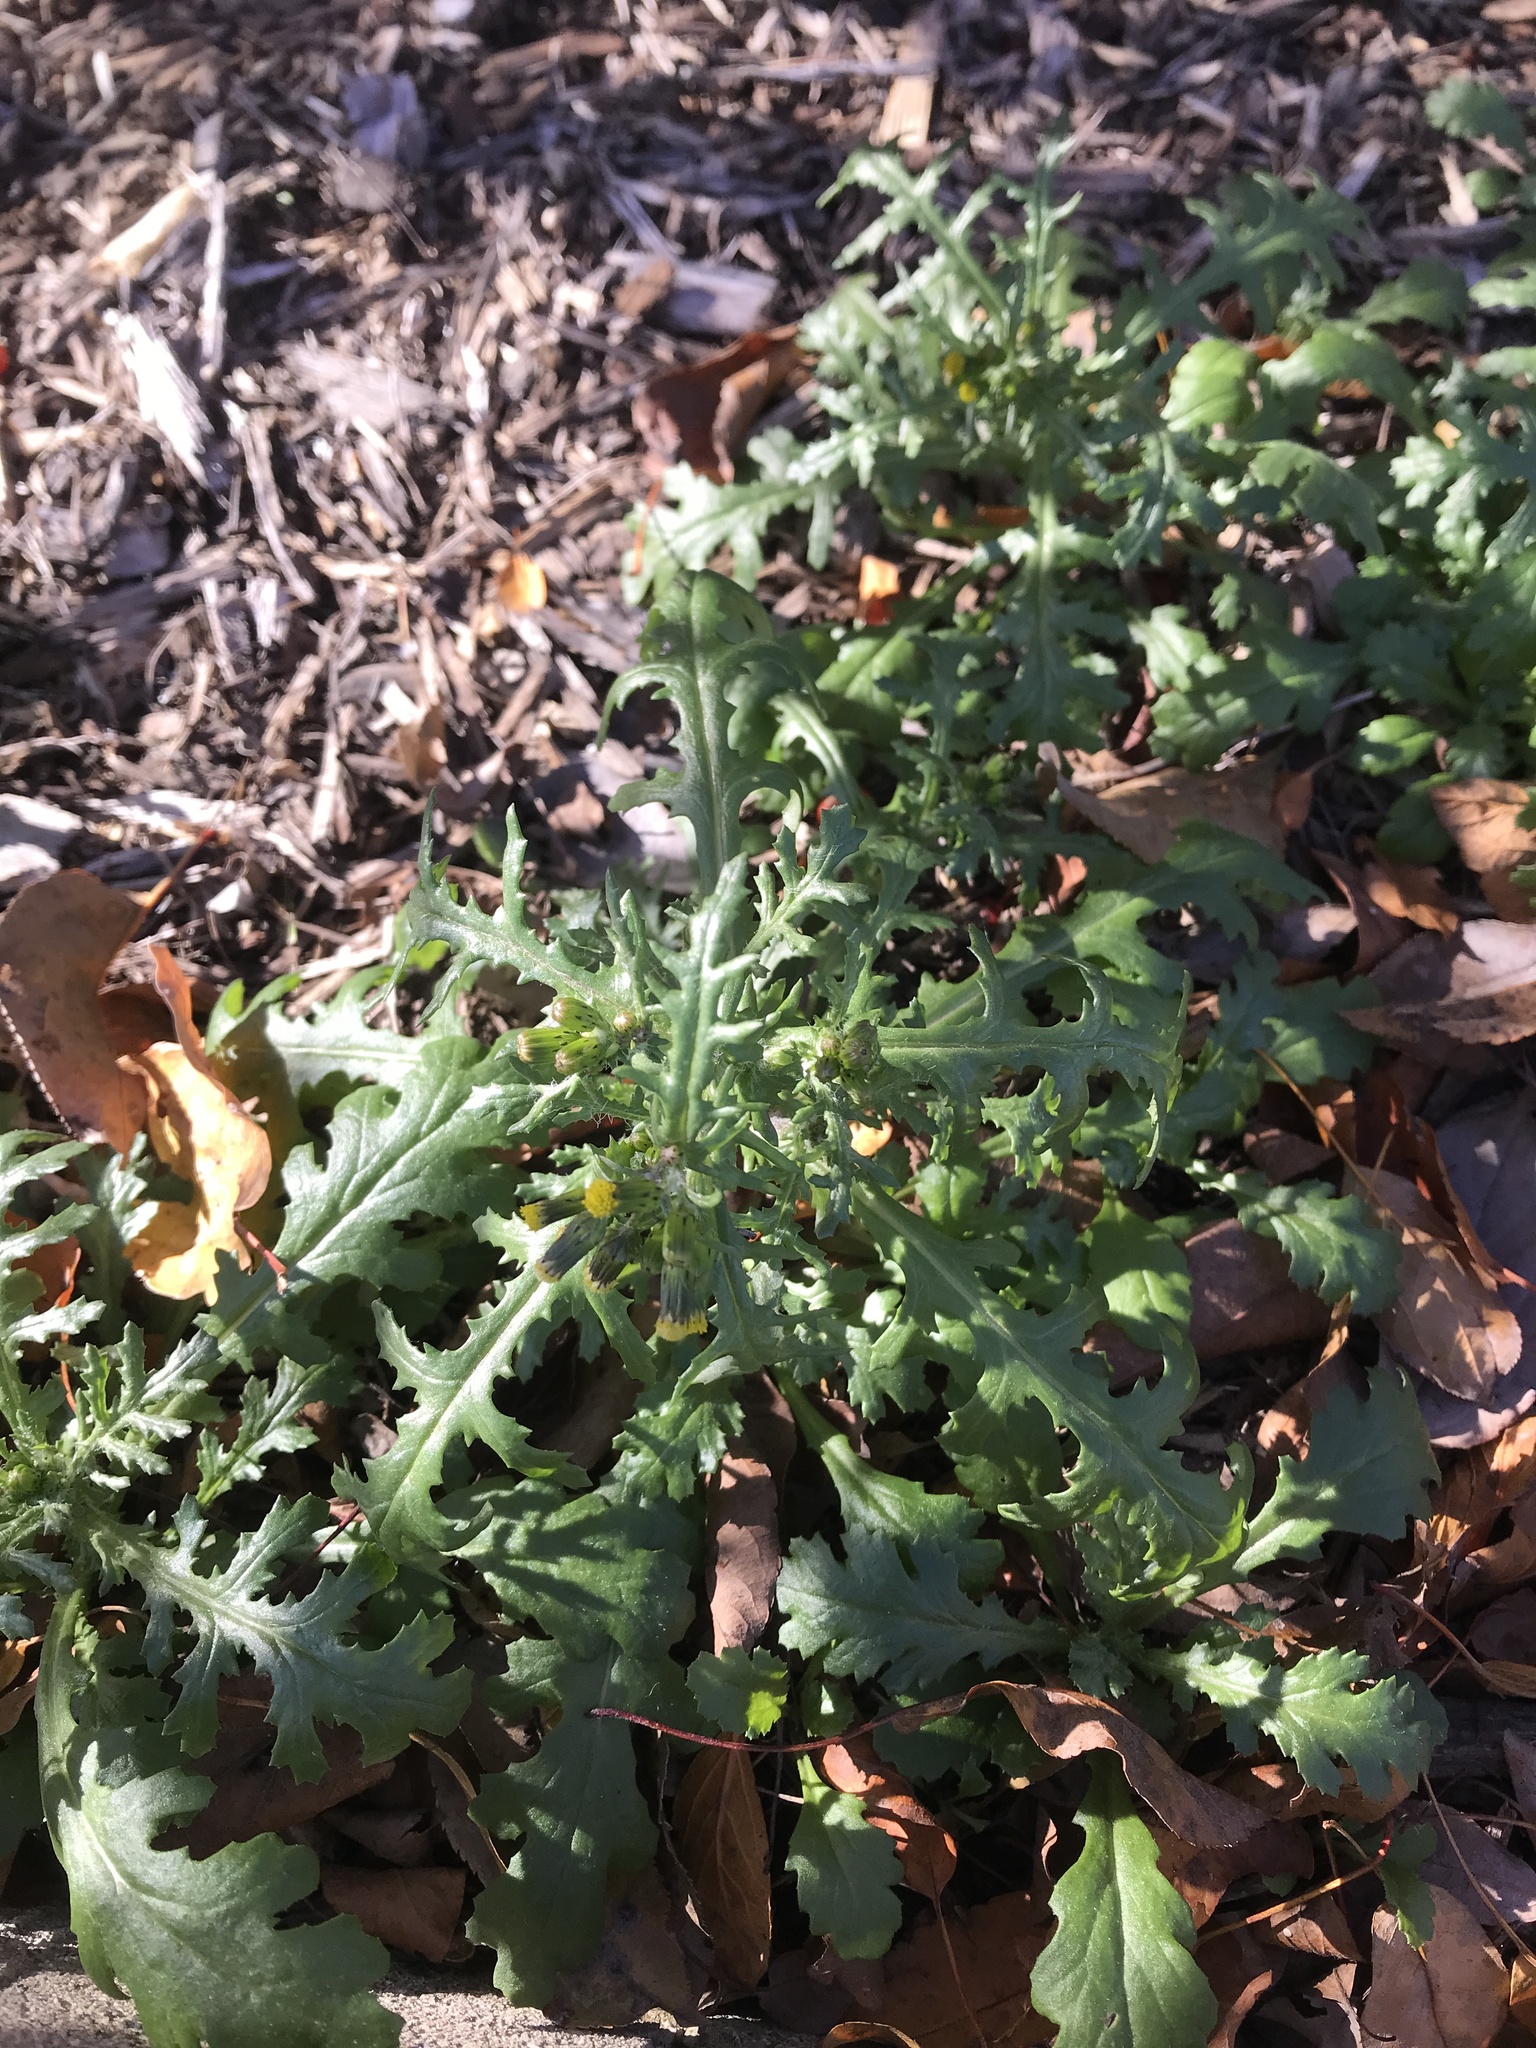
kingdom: Plantae
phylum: Tracheophyta
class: Magnoliopsida
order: Asterales
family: Asteraceae
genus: Senecio
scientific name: Senecio vulgaris
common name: Old-man-in-the-spring
